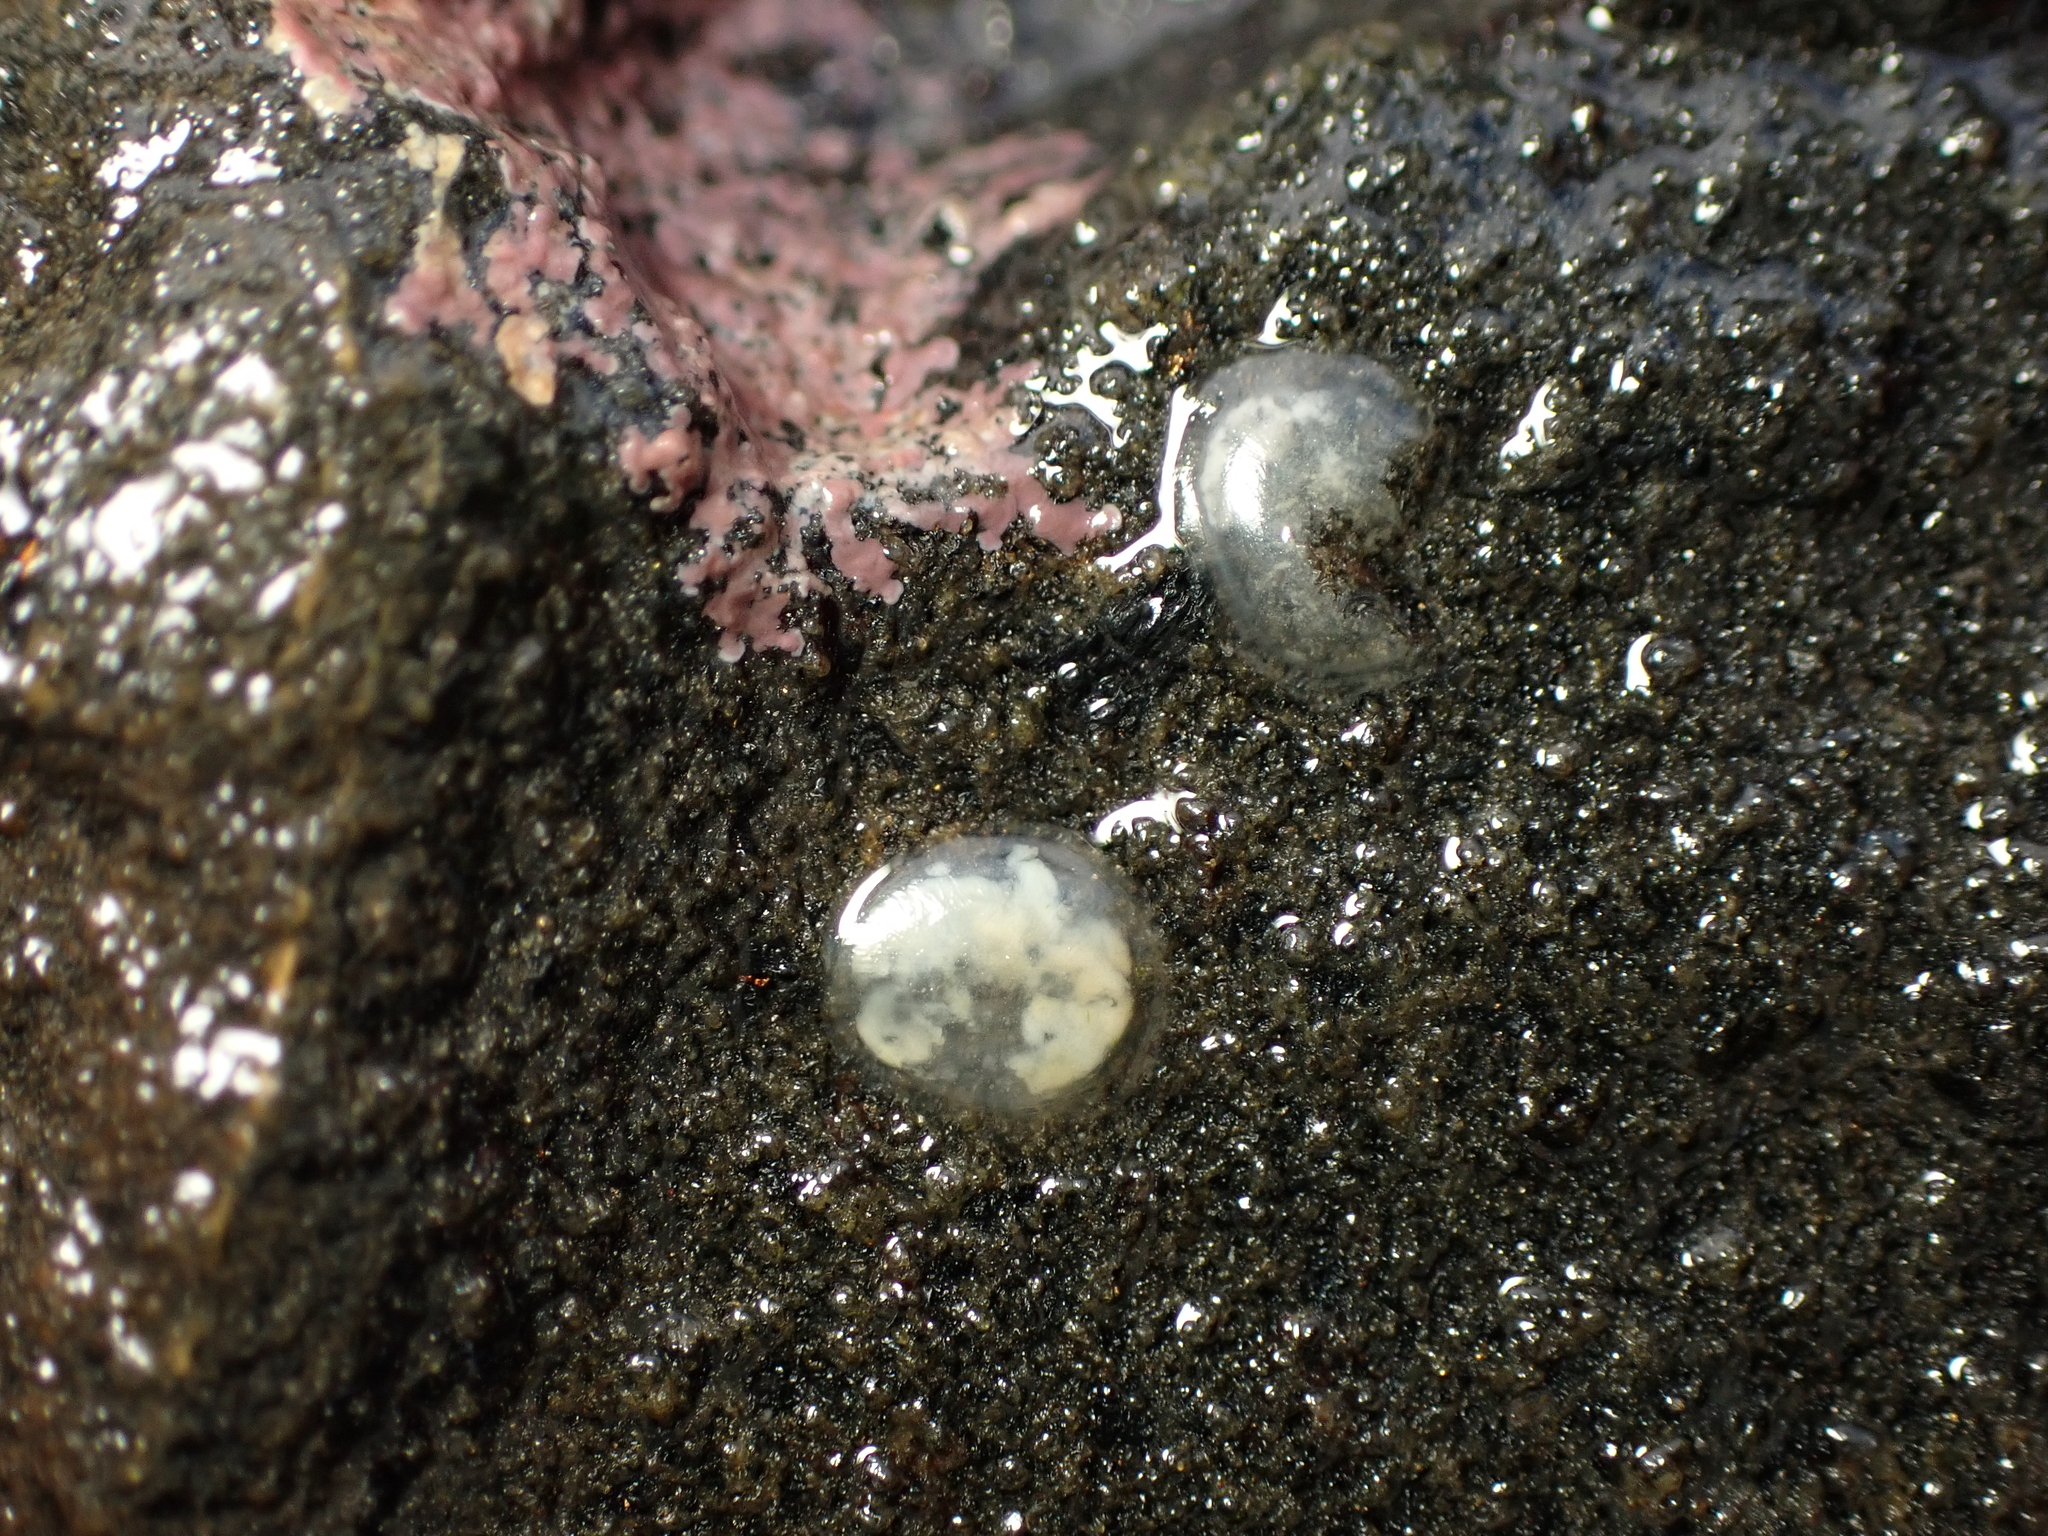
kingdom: Animalia
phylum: Mollusca
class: Gastropoda
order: Neogastropoda
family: Muricidae
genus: Xymene
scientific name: Xymene plebeius
